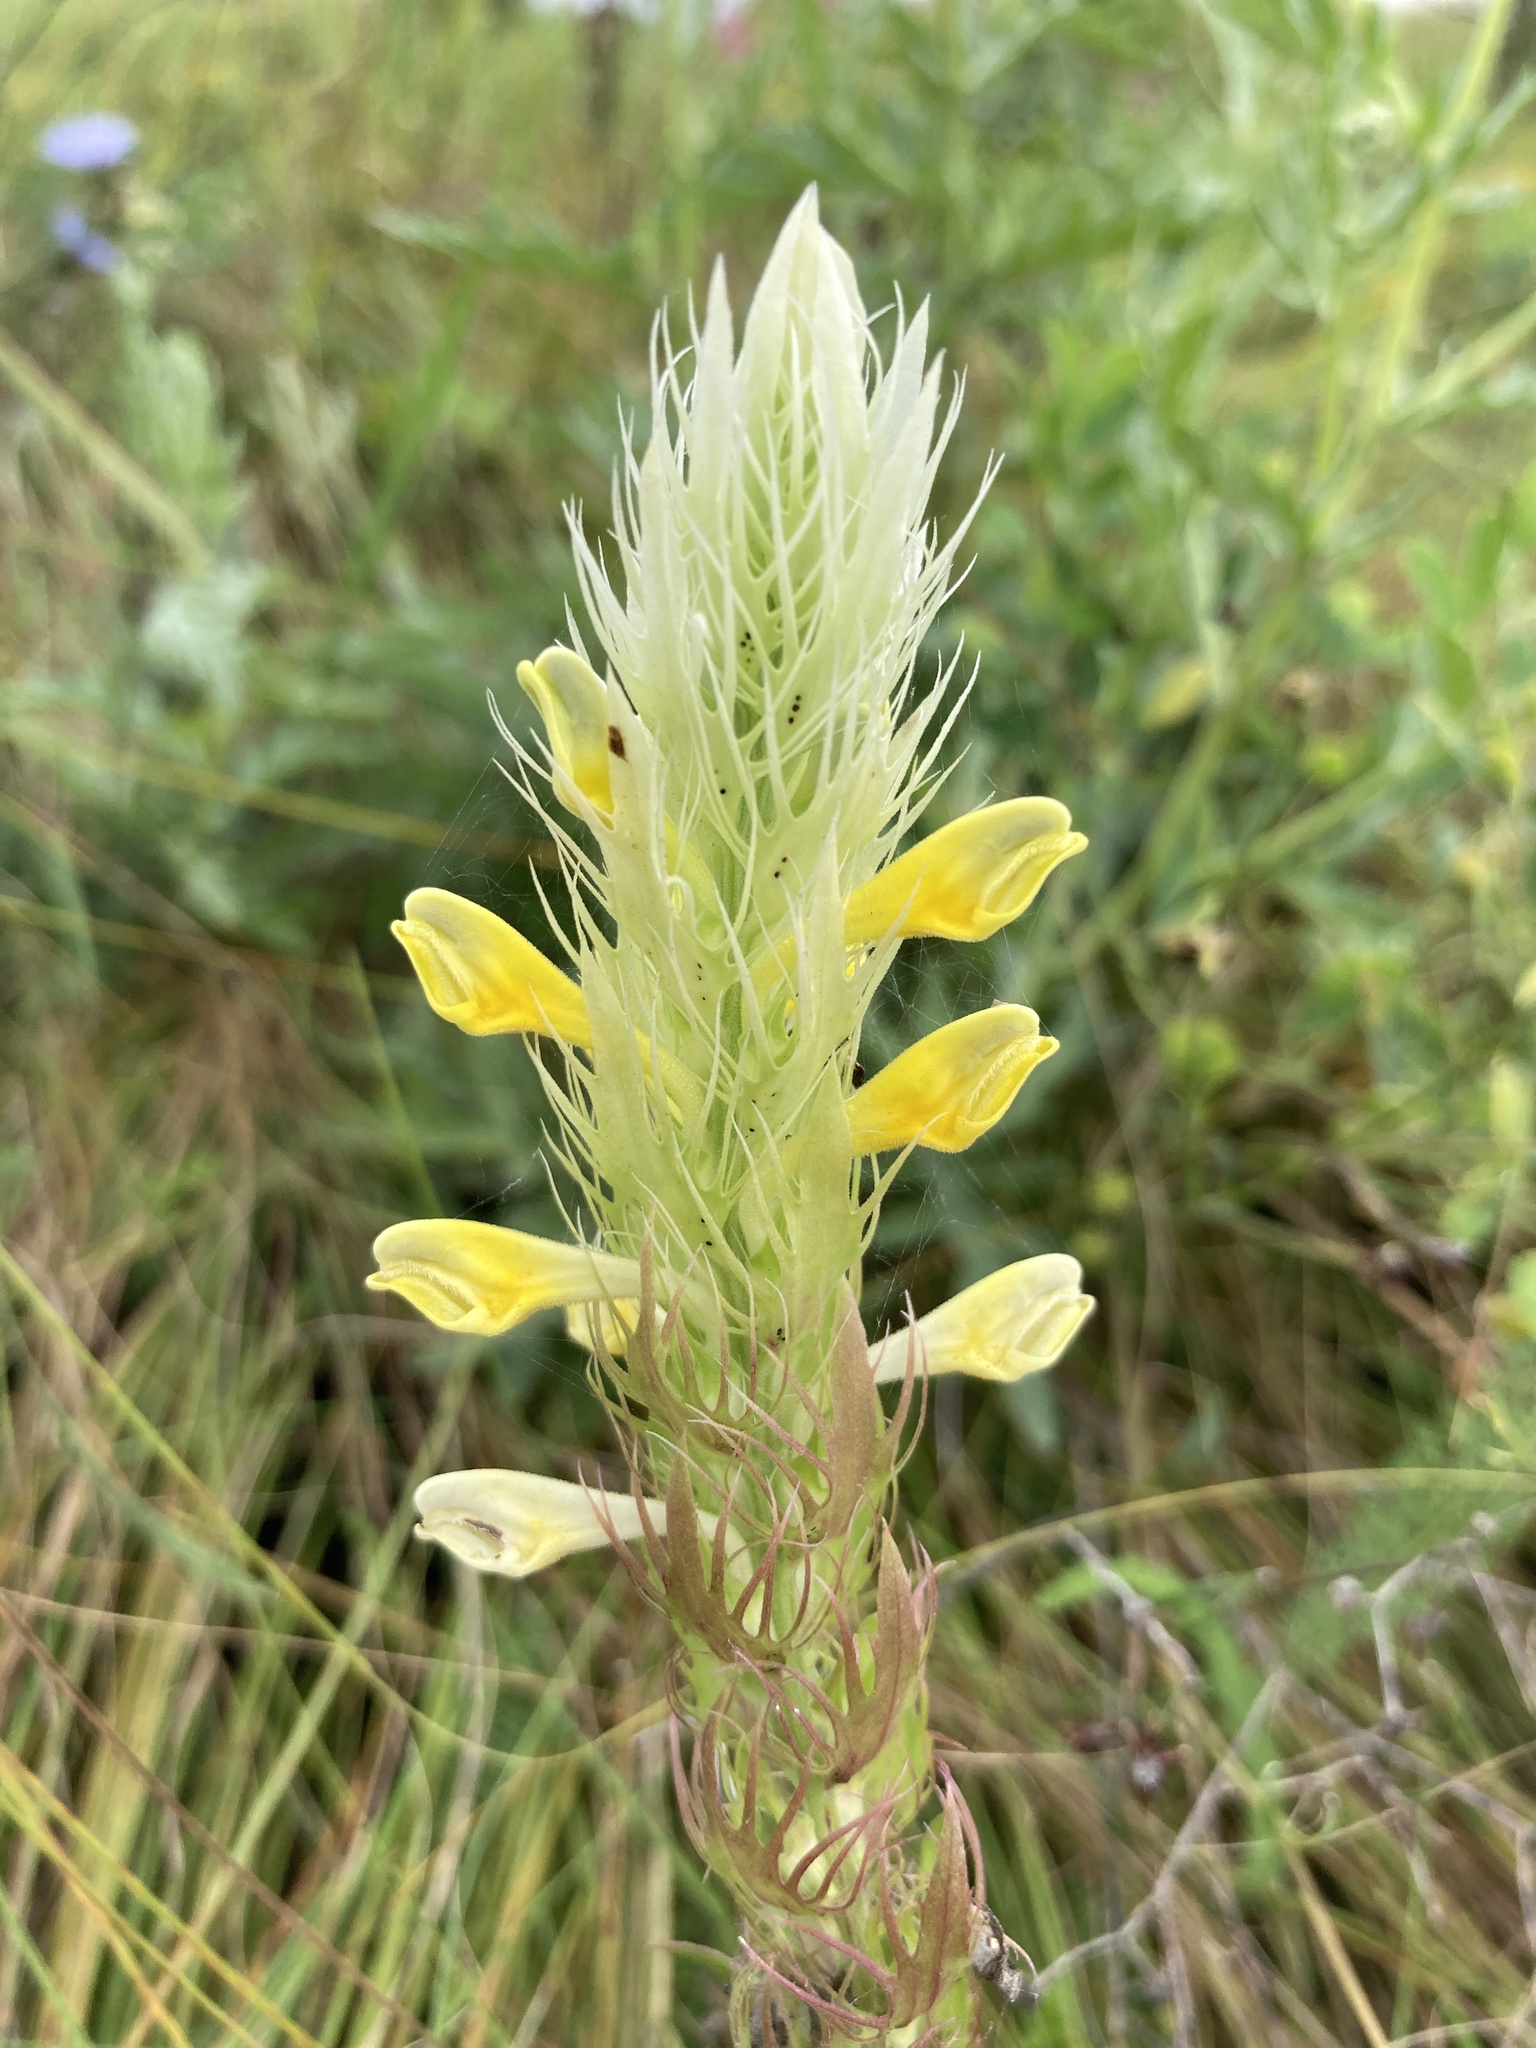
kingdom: Plantae
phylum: Tracheophyta
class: Magnoliopsida
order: Lamiales
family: Orobanchaceae
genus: Melampyrum
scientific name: Melampyrum arvense
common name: Field cow-wheat
